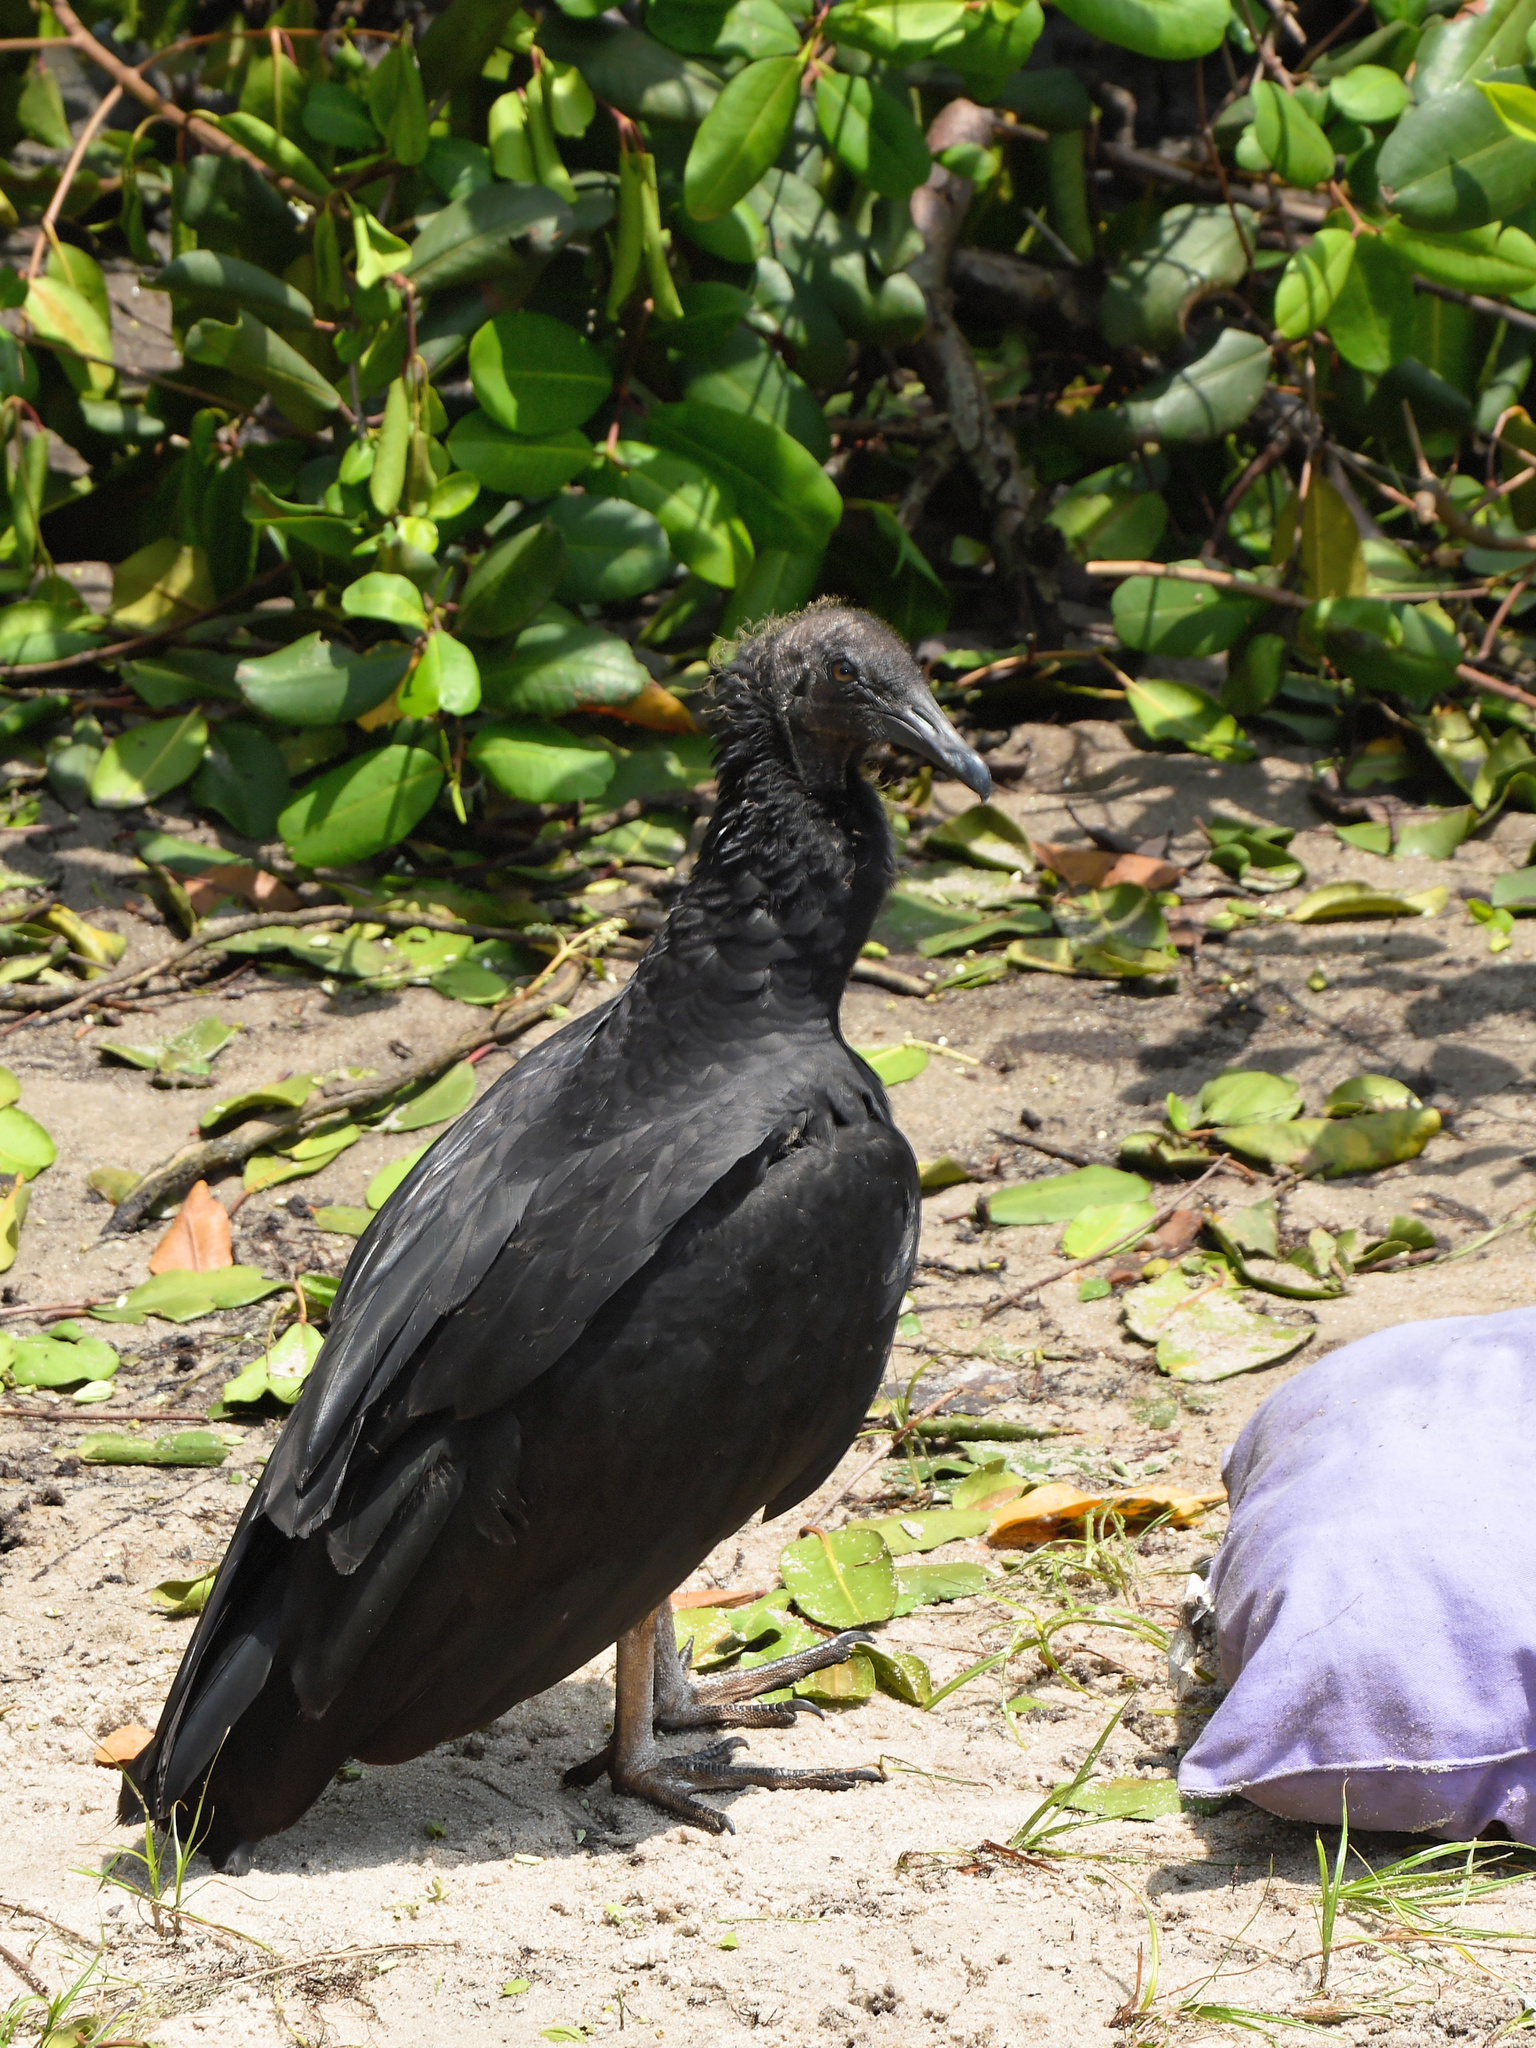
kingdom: Animalia
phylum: Chordata
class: Aves
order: Accipitriformes
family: Cathartidae
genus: Coragyps
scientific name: Coragyps atratus
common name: Black vulture
